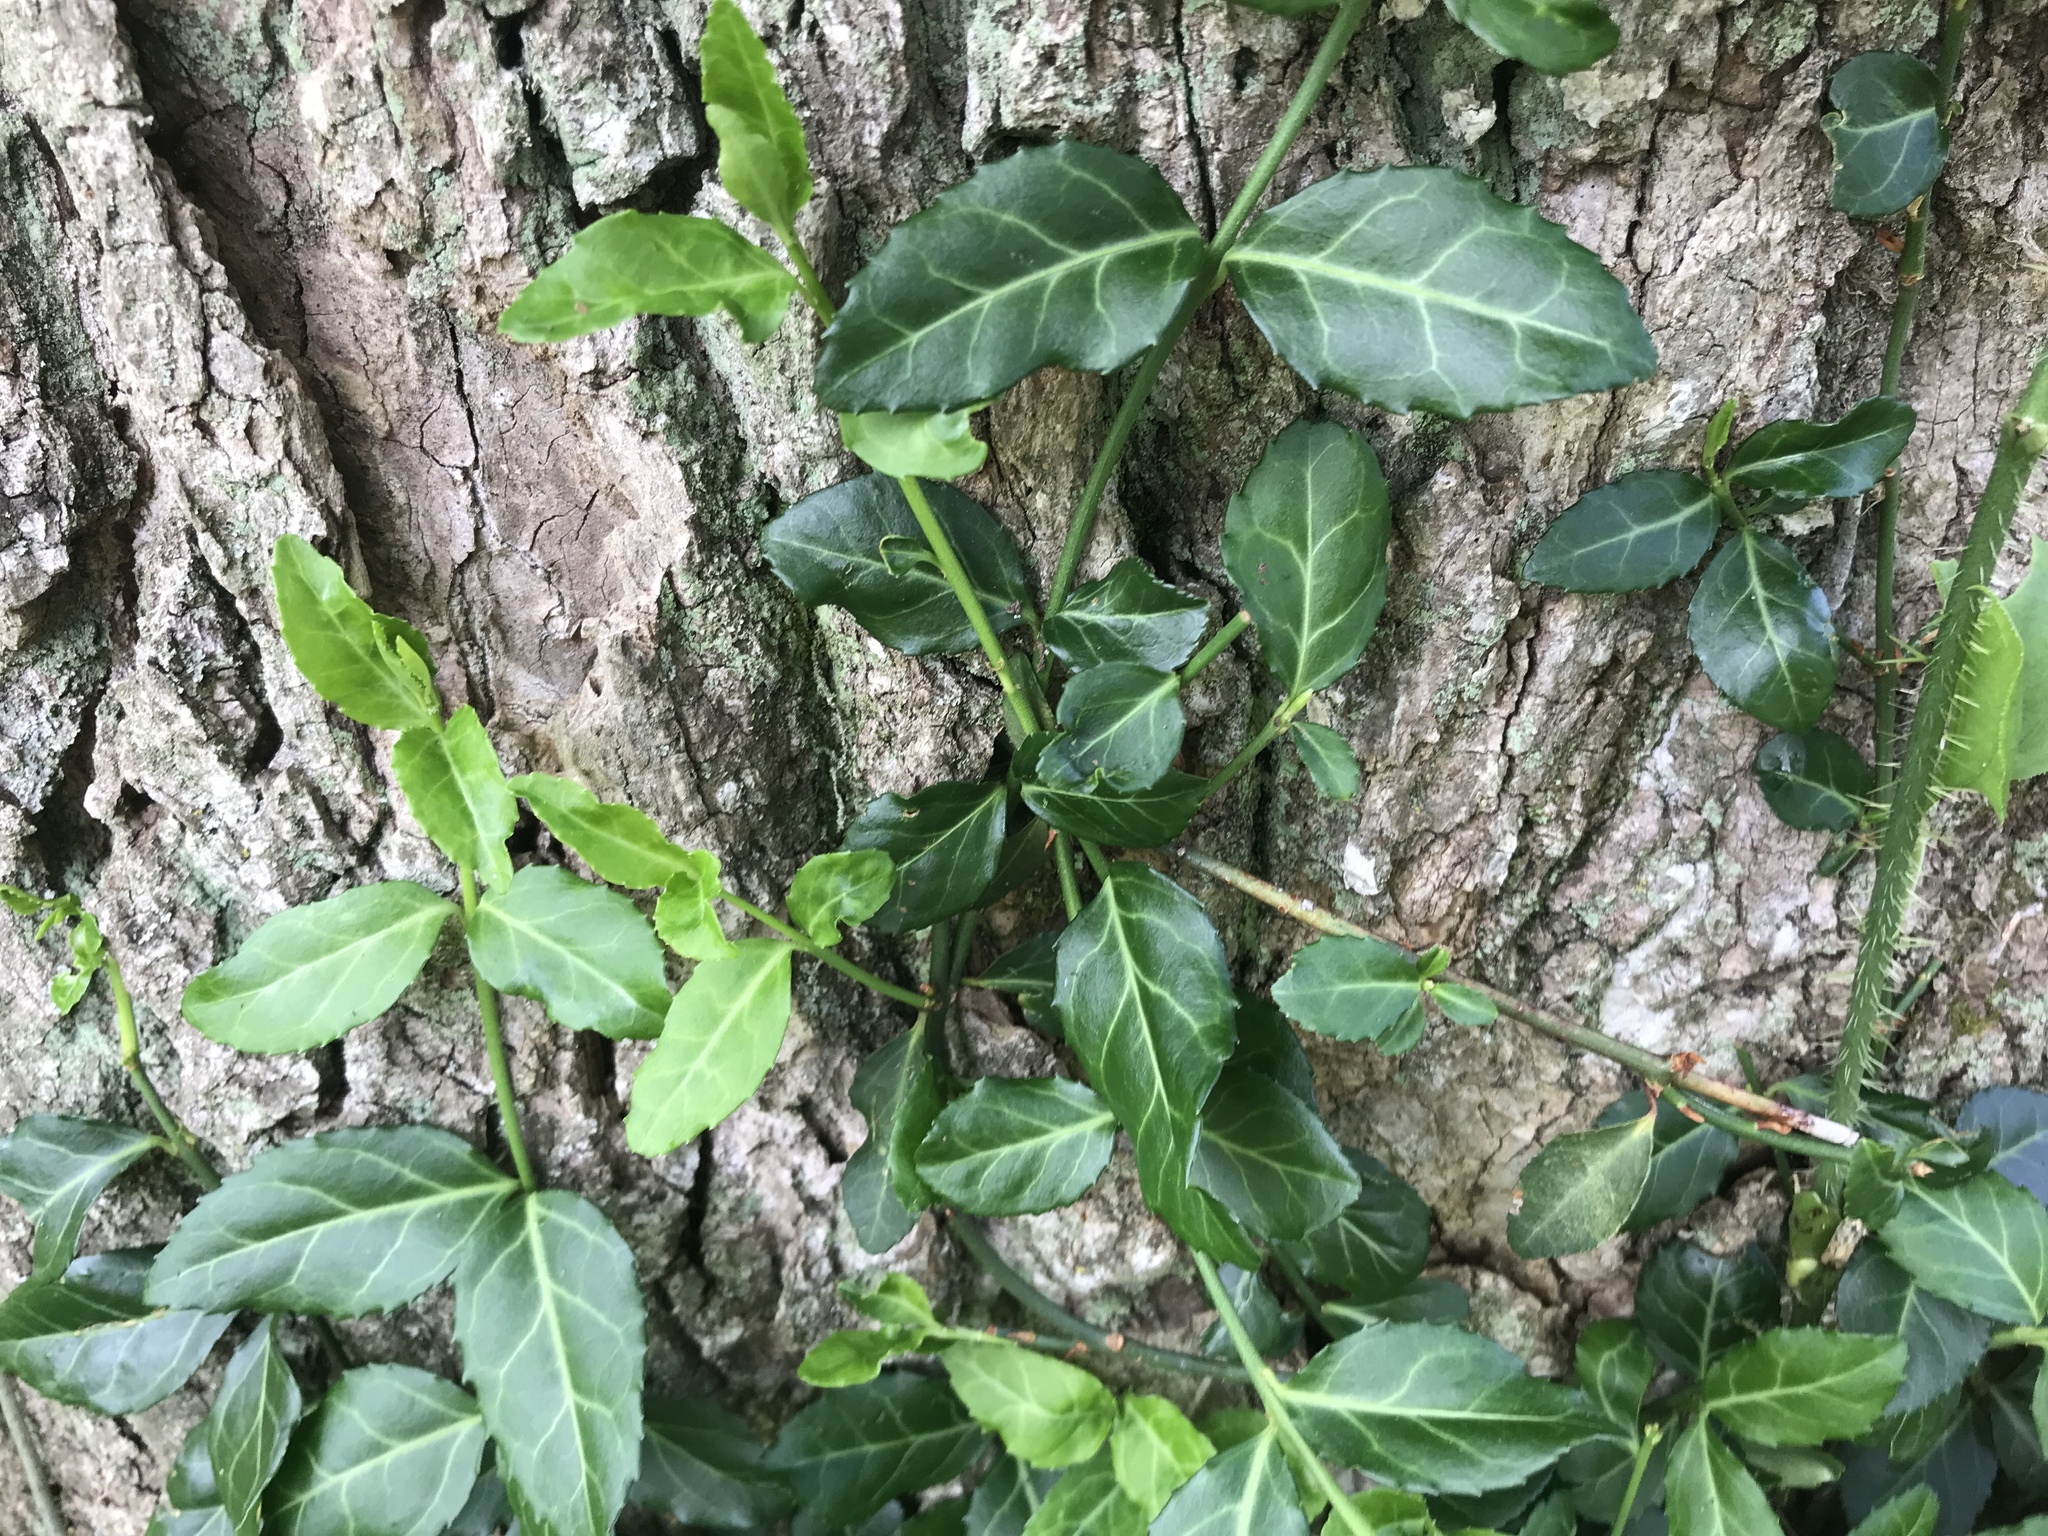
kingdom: Plantae
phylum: Tracheophyta
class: Magnoliopsida
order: Celastrales
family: Celastraceae
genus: Euonymus
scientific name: Euonymus fortunei
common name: Climbing euonymus
